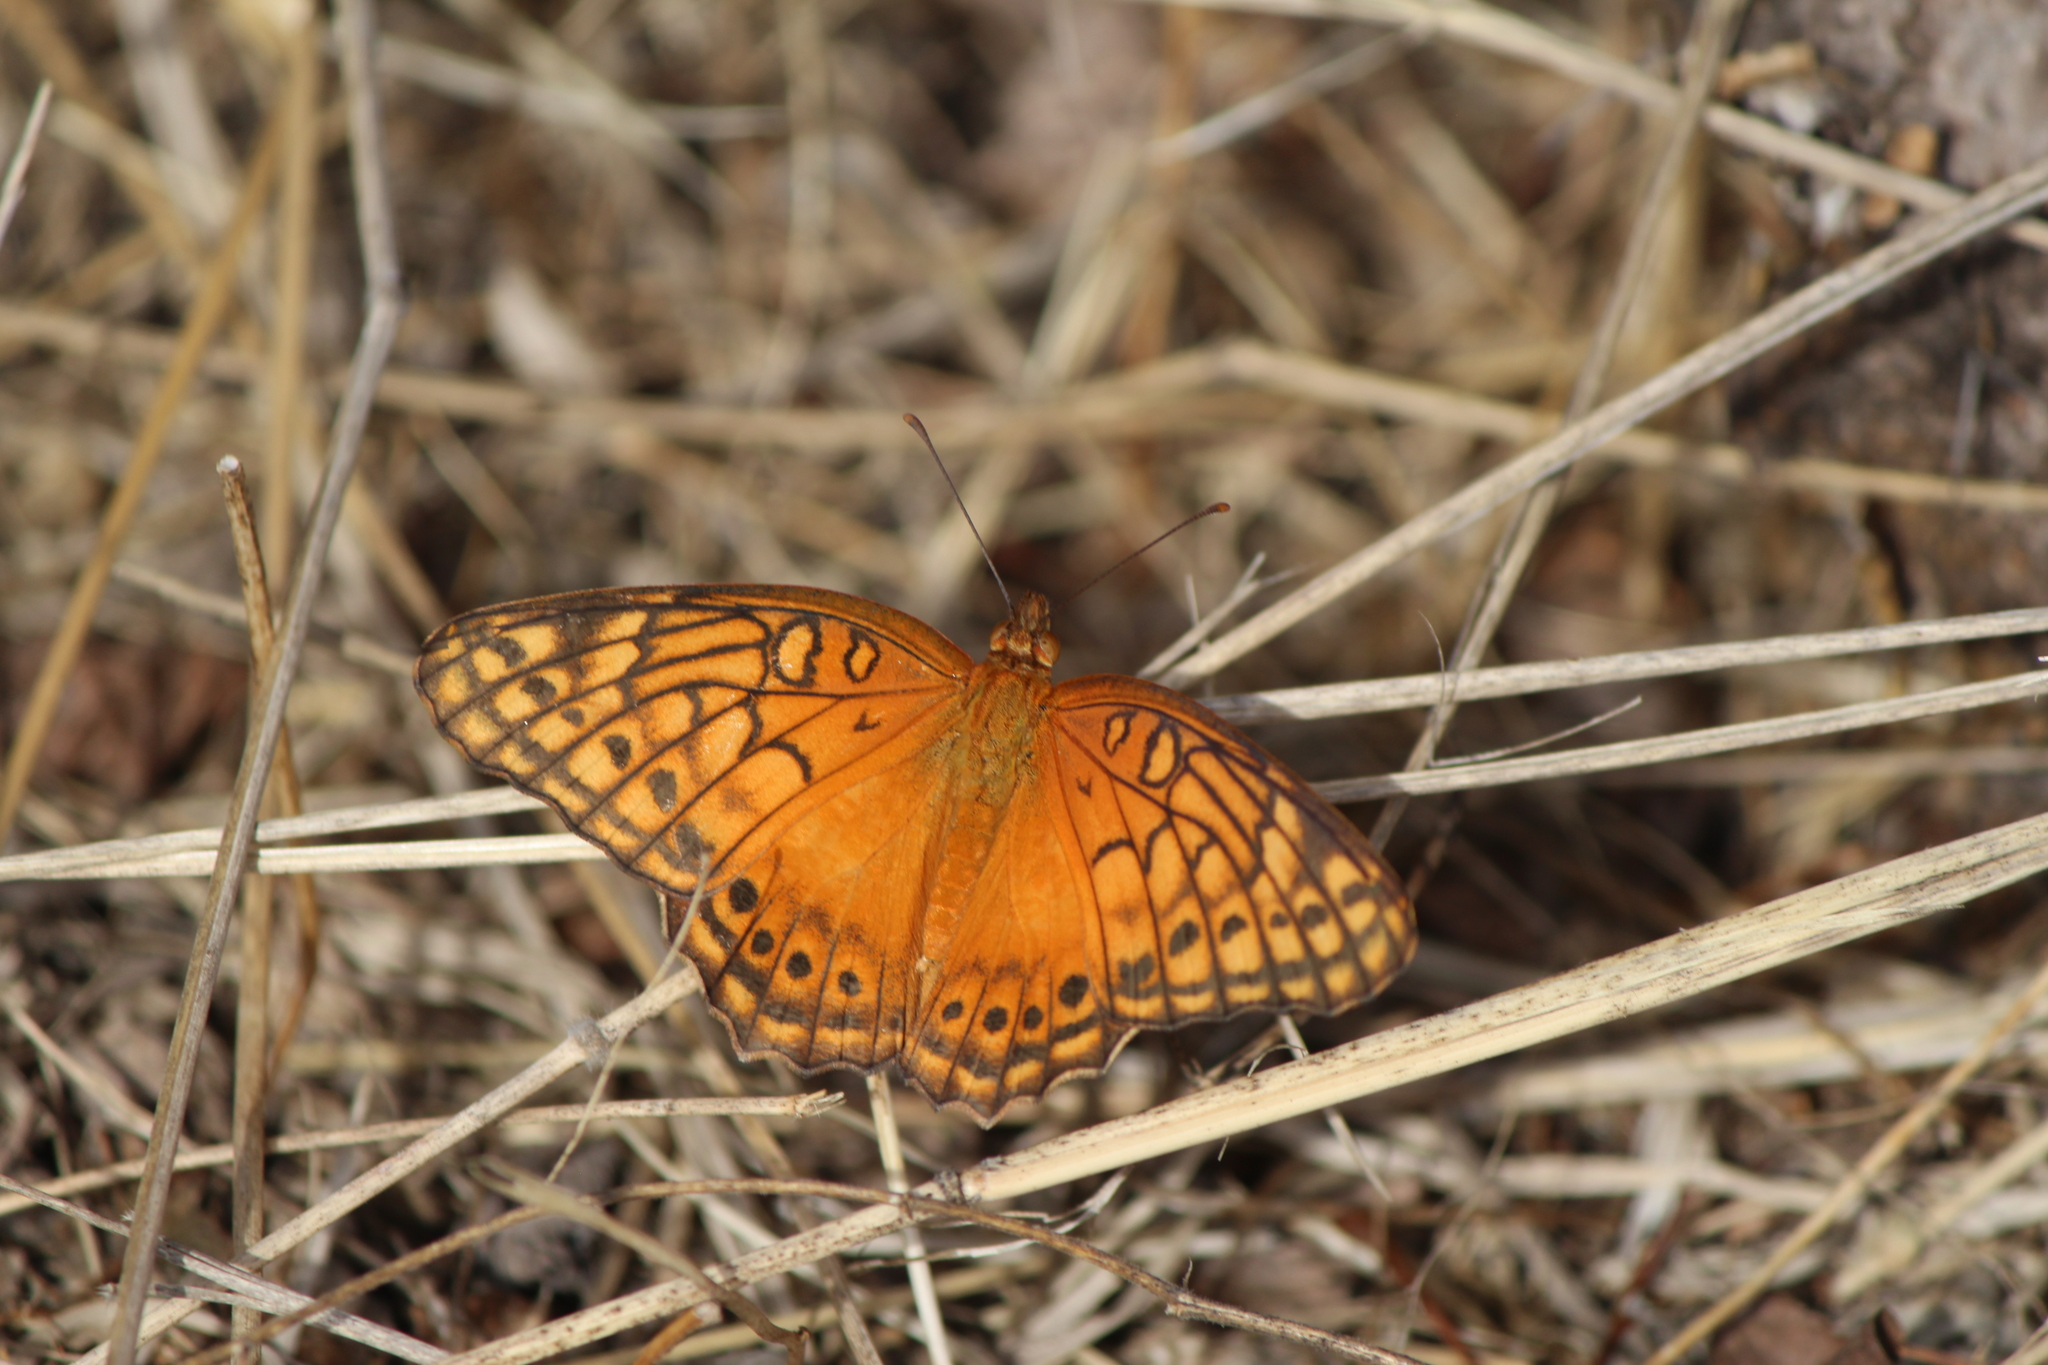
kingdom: Animalia
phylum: Arthropoda
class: Insecta
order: Lepidoptera
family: Nymphalidae
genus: Euptoieta
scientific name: Euptoieta hegesia
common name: Mexican fritillary
